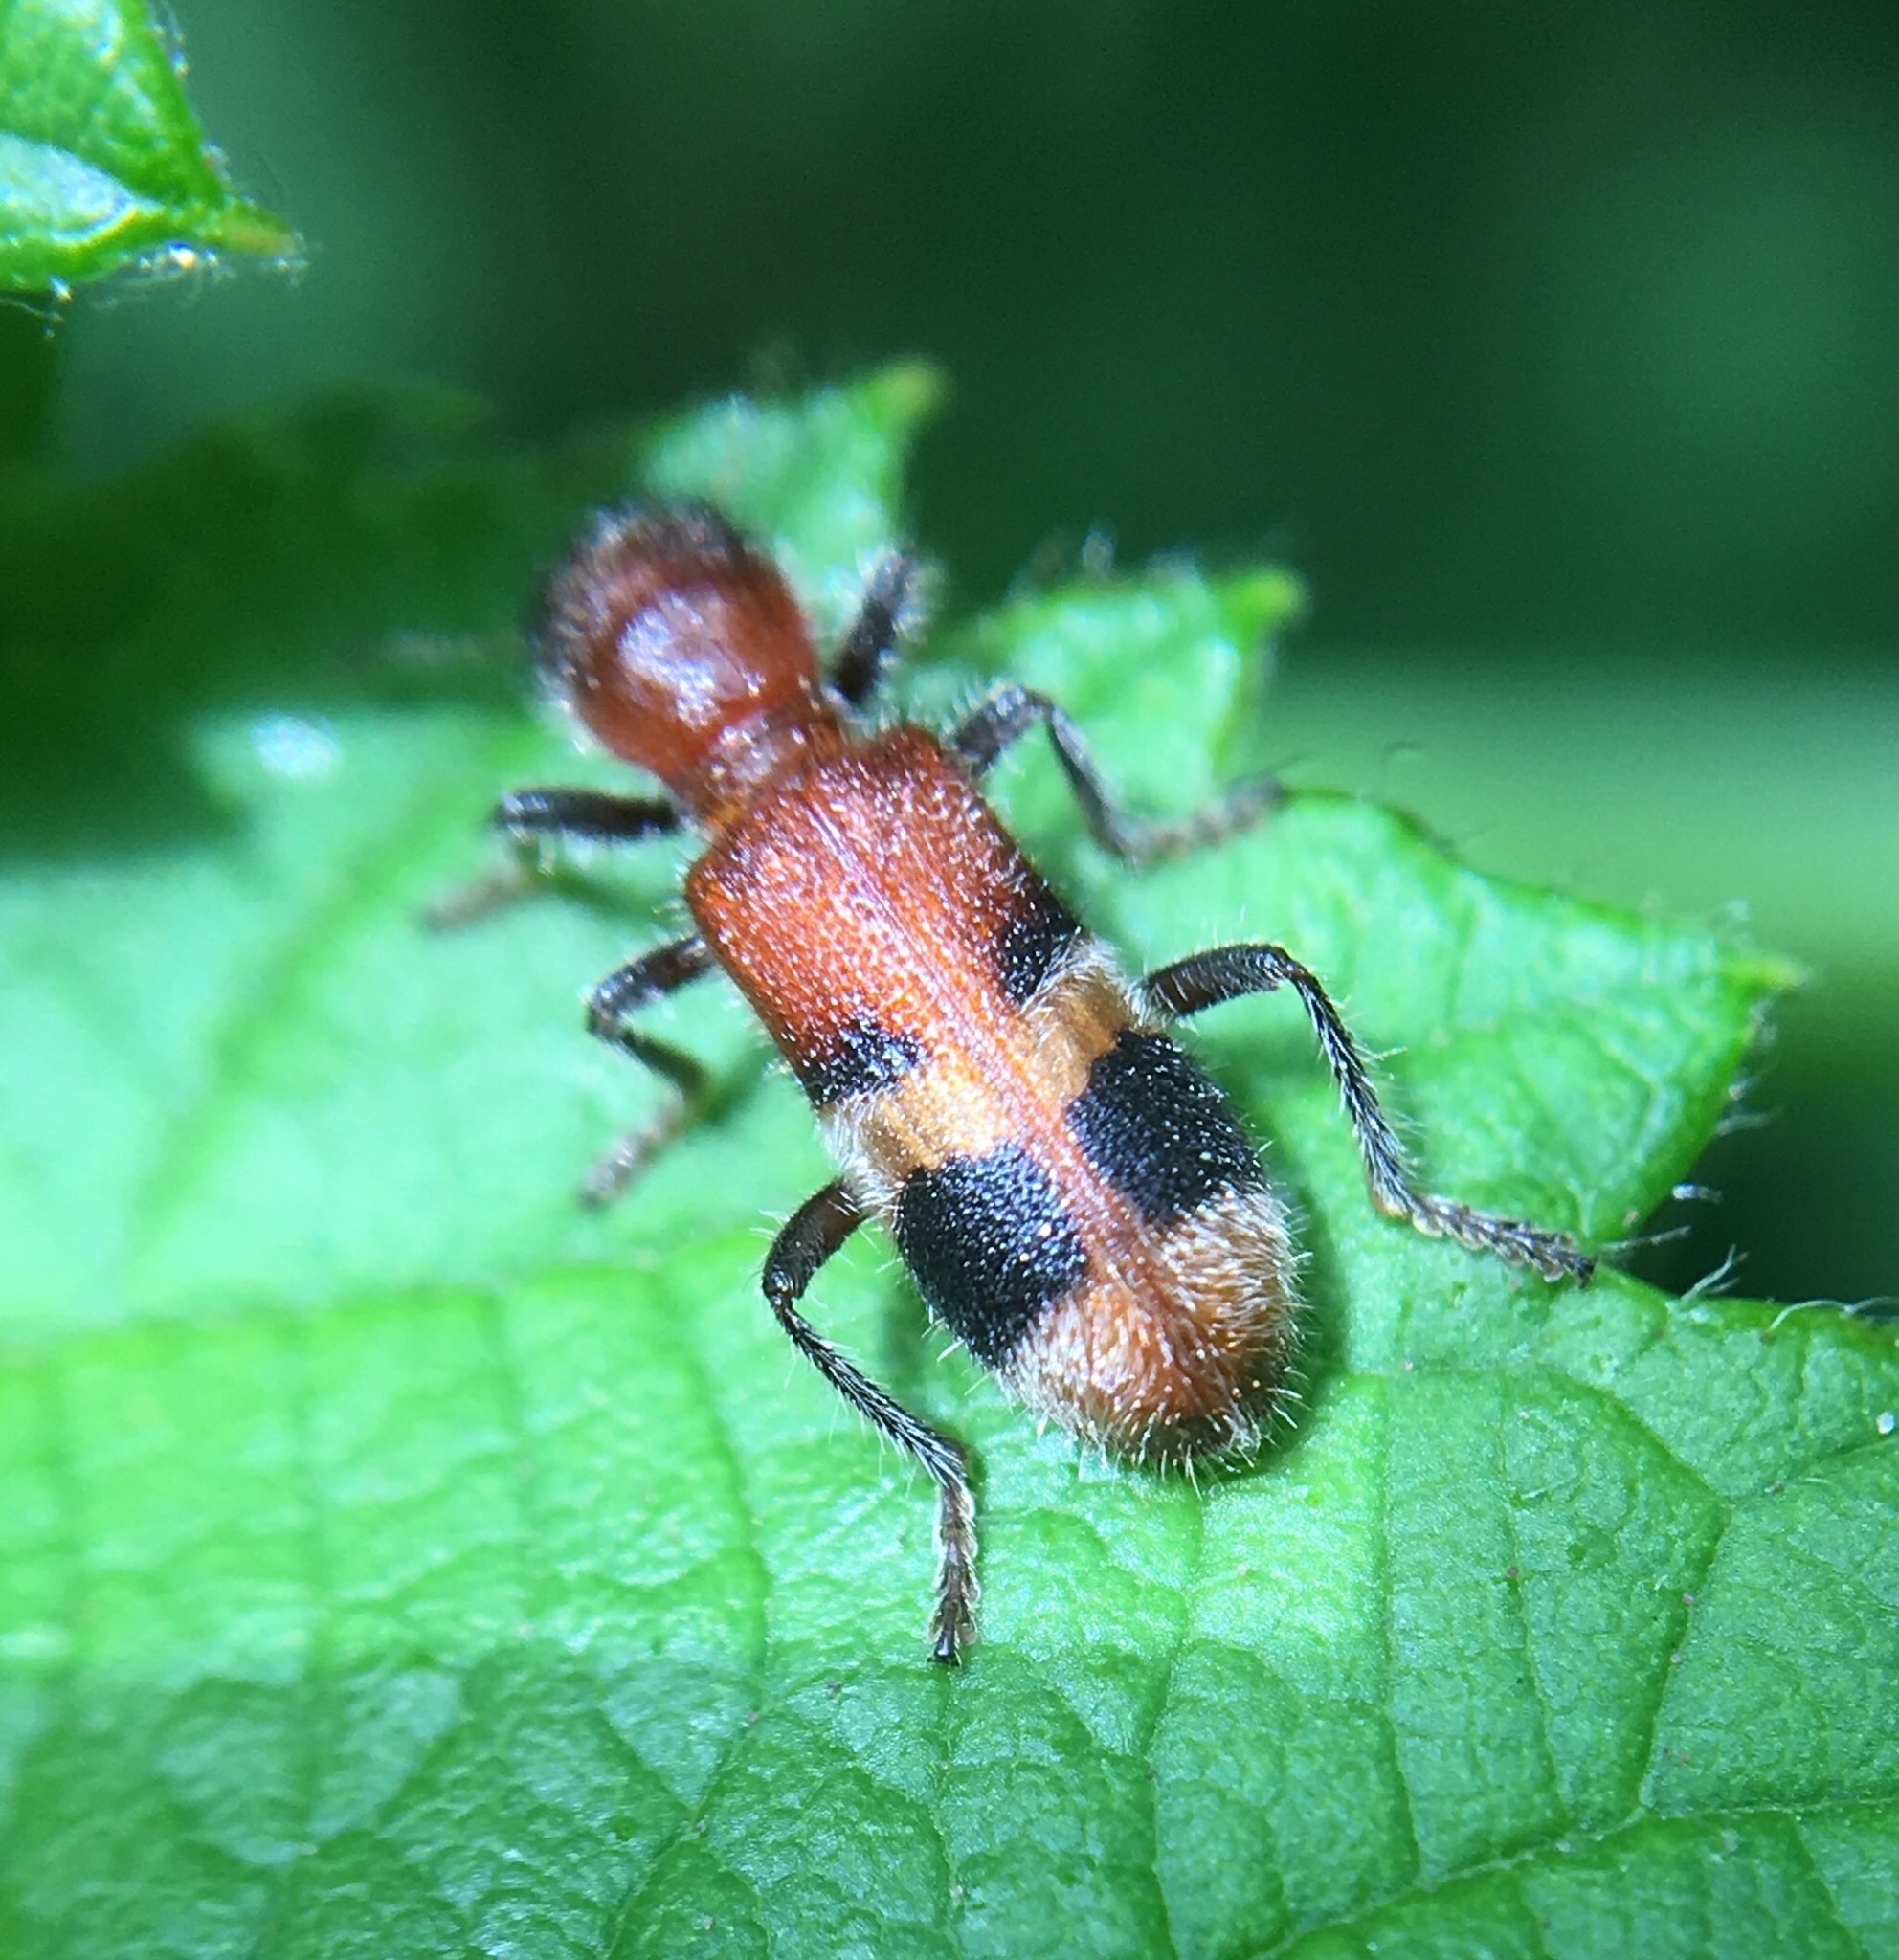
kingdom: Animalia
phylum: Arthropoda
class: Insecta
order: Coleoptera
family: Cleridae
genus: Enoclerus
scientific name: Enoclerus rosmarus
